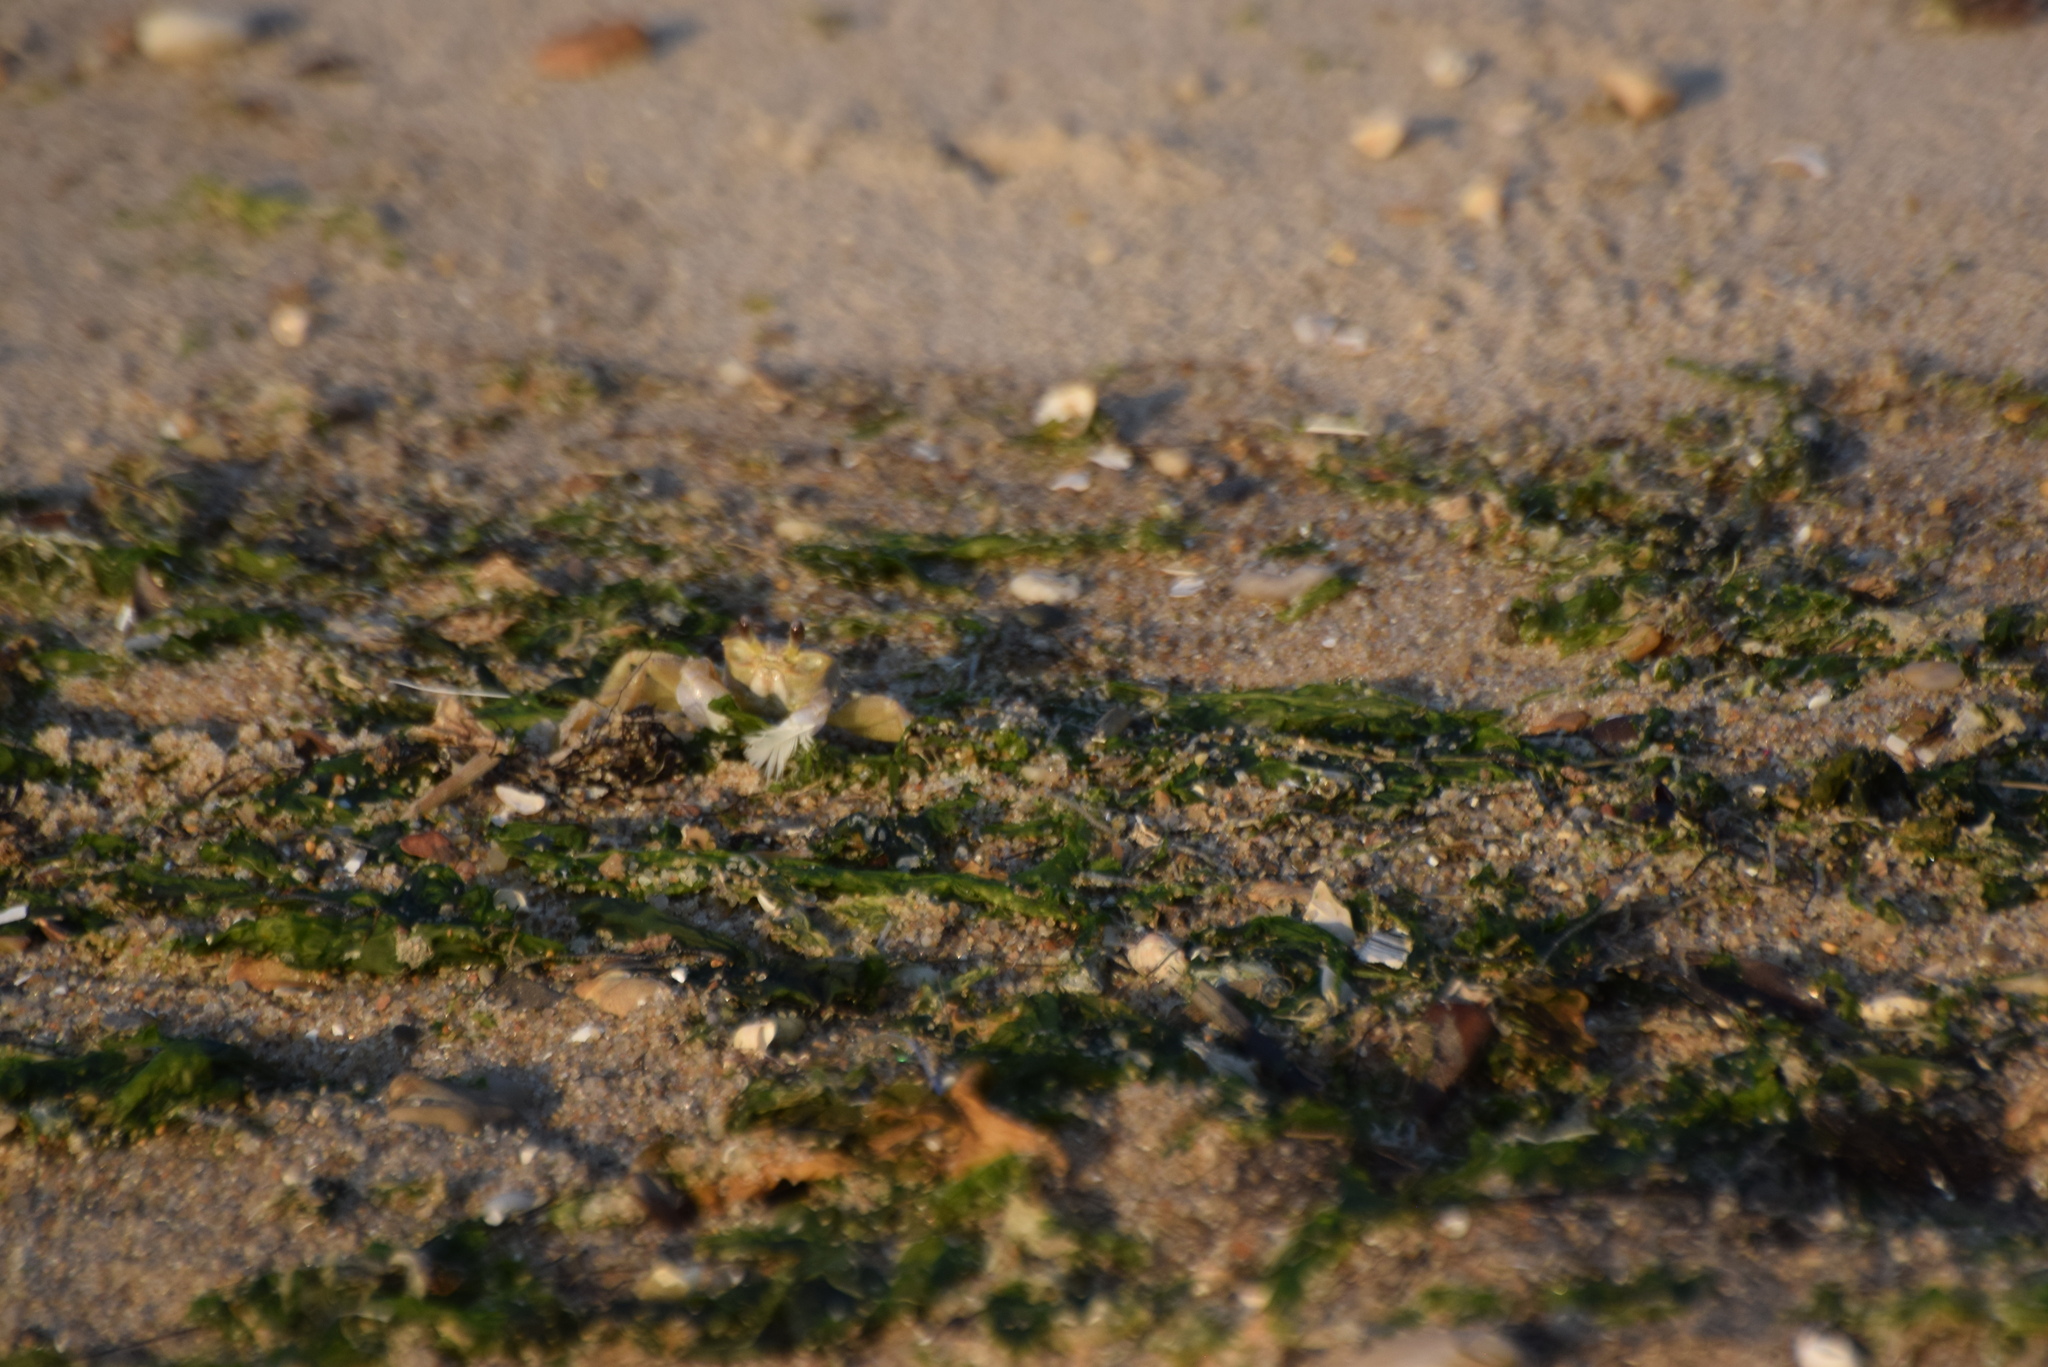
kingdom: Animalia
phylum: Arthropoda
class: Malacostraca
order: Decapoda
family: Ocypodidae
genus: Ocypode
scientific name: Ocypode quadrata
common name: Ghost crab
